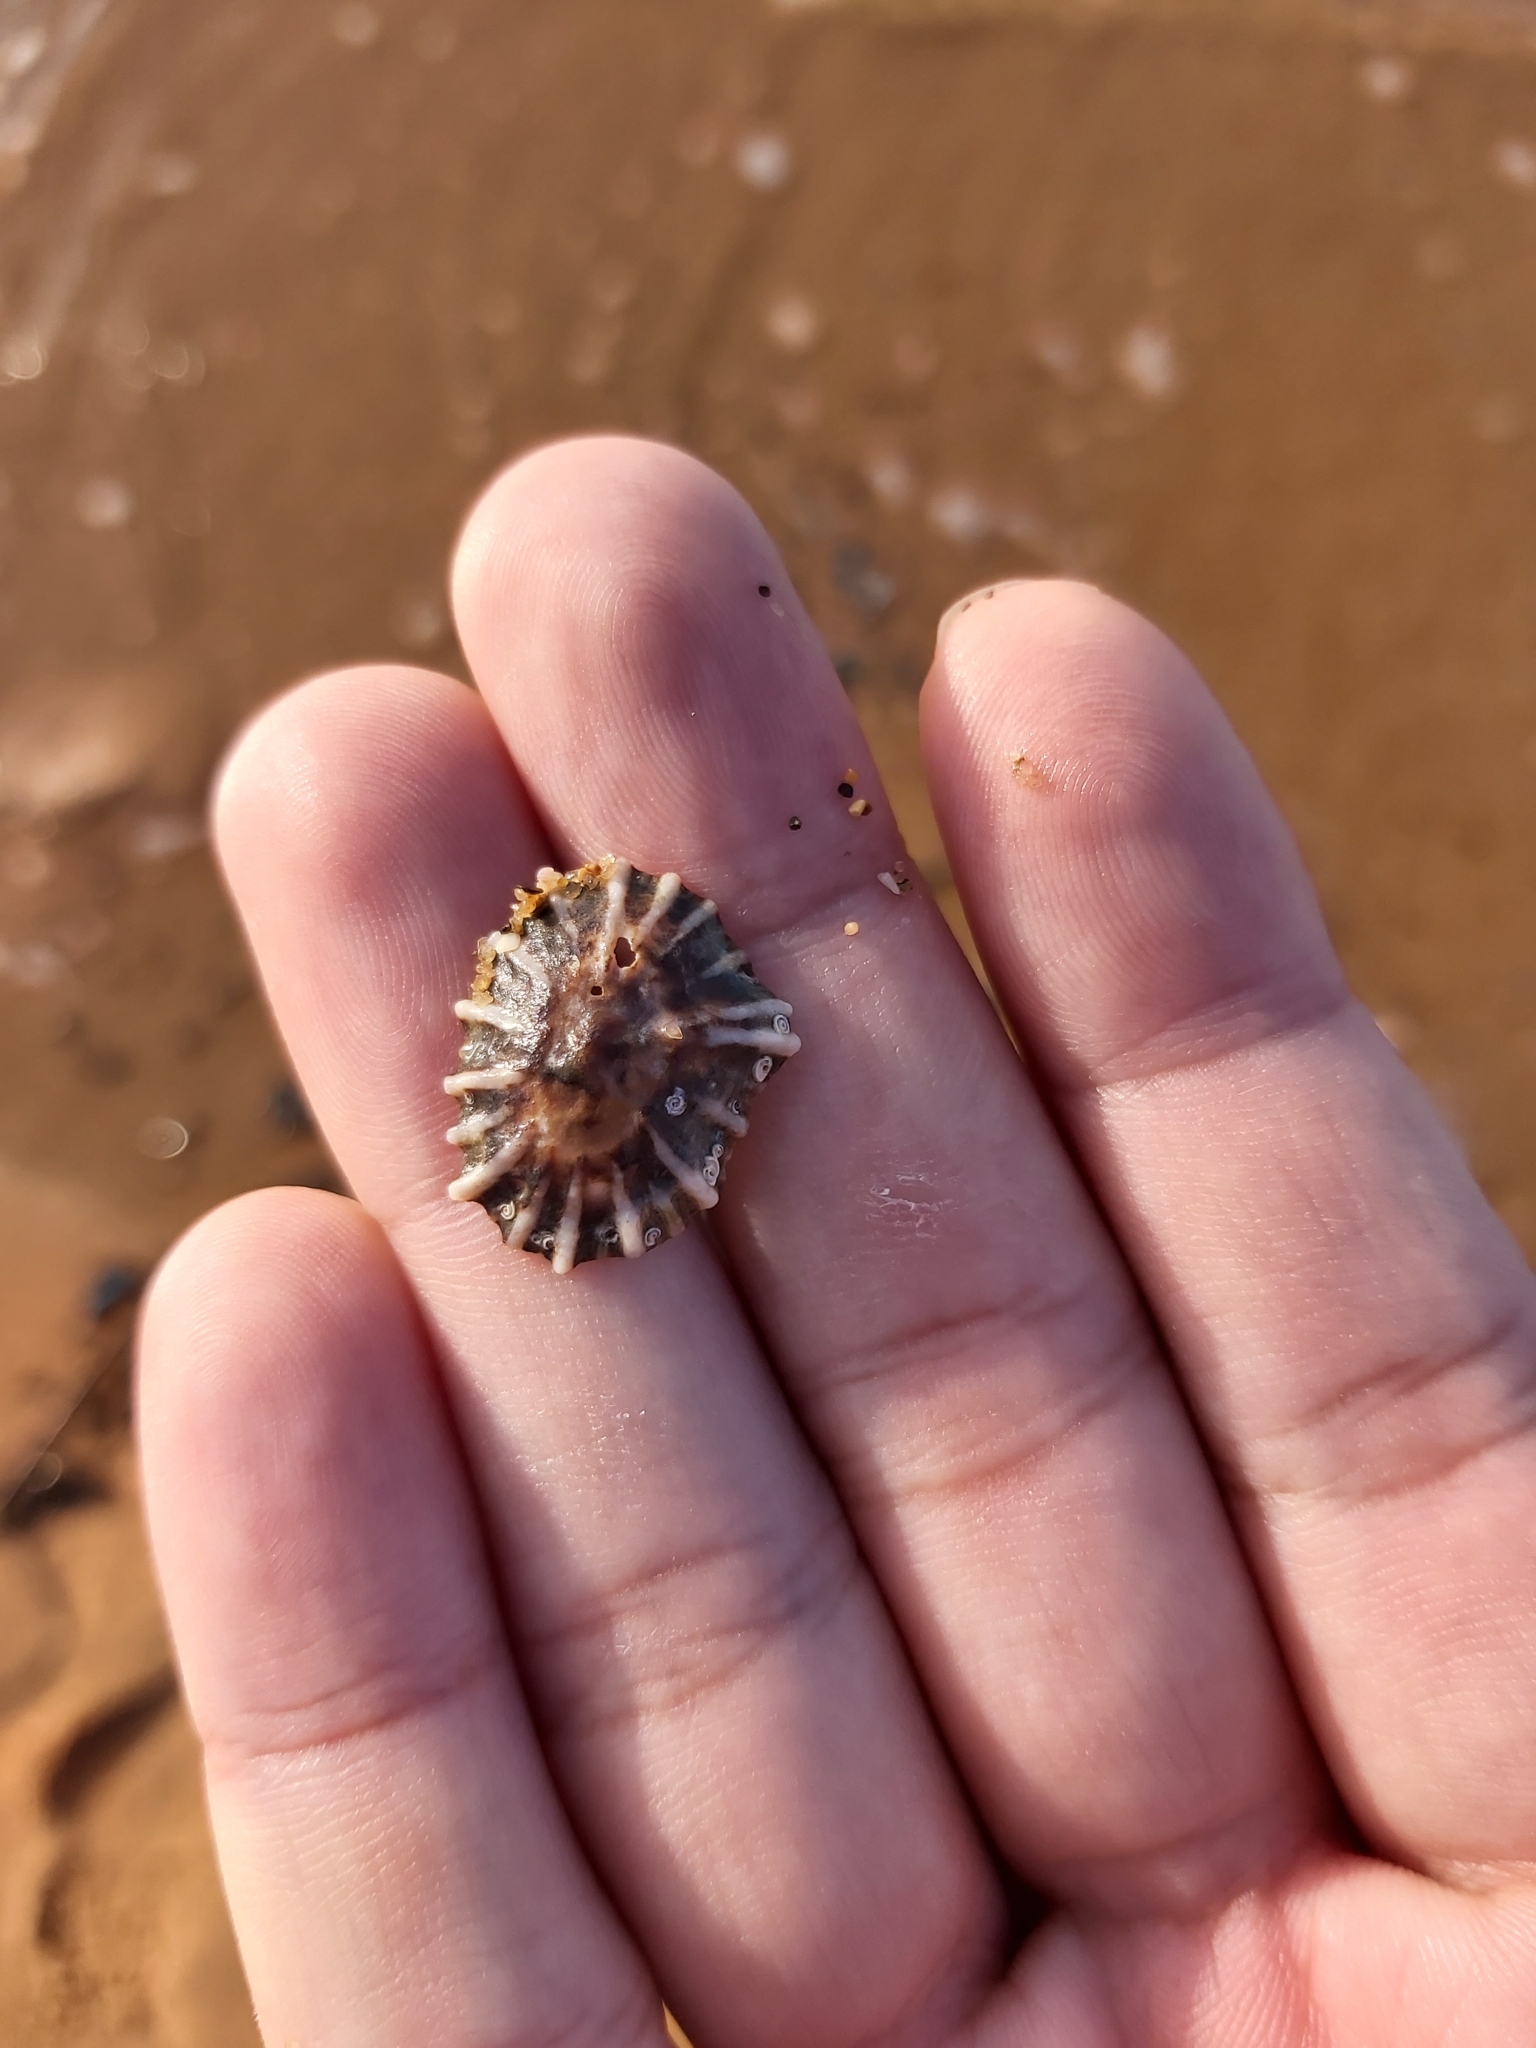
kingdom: Animalia
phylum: Mollusca
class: Gastropoda
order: Siphonariida
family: Siphonariidae
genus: Siphonaria
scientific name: Siphonaria denticulata
